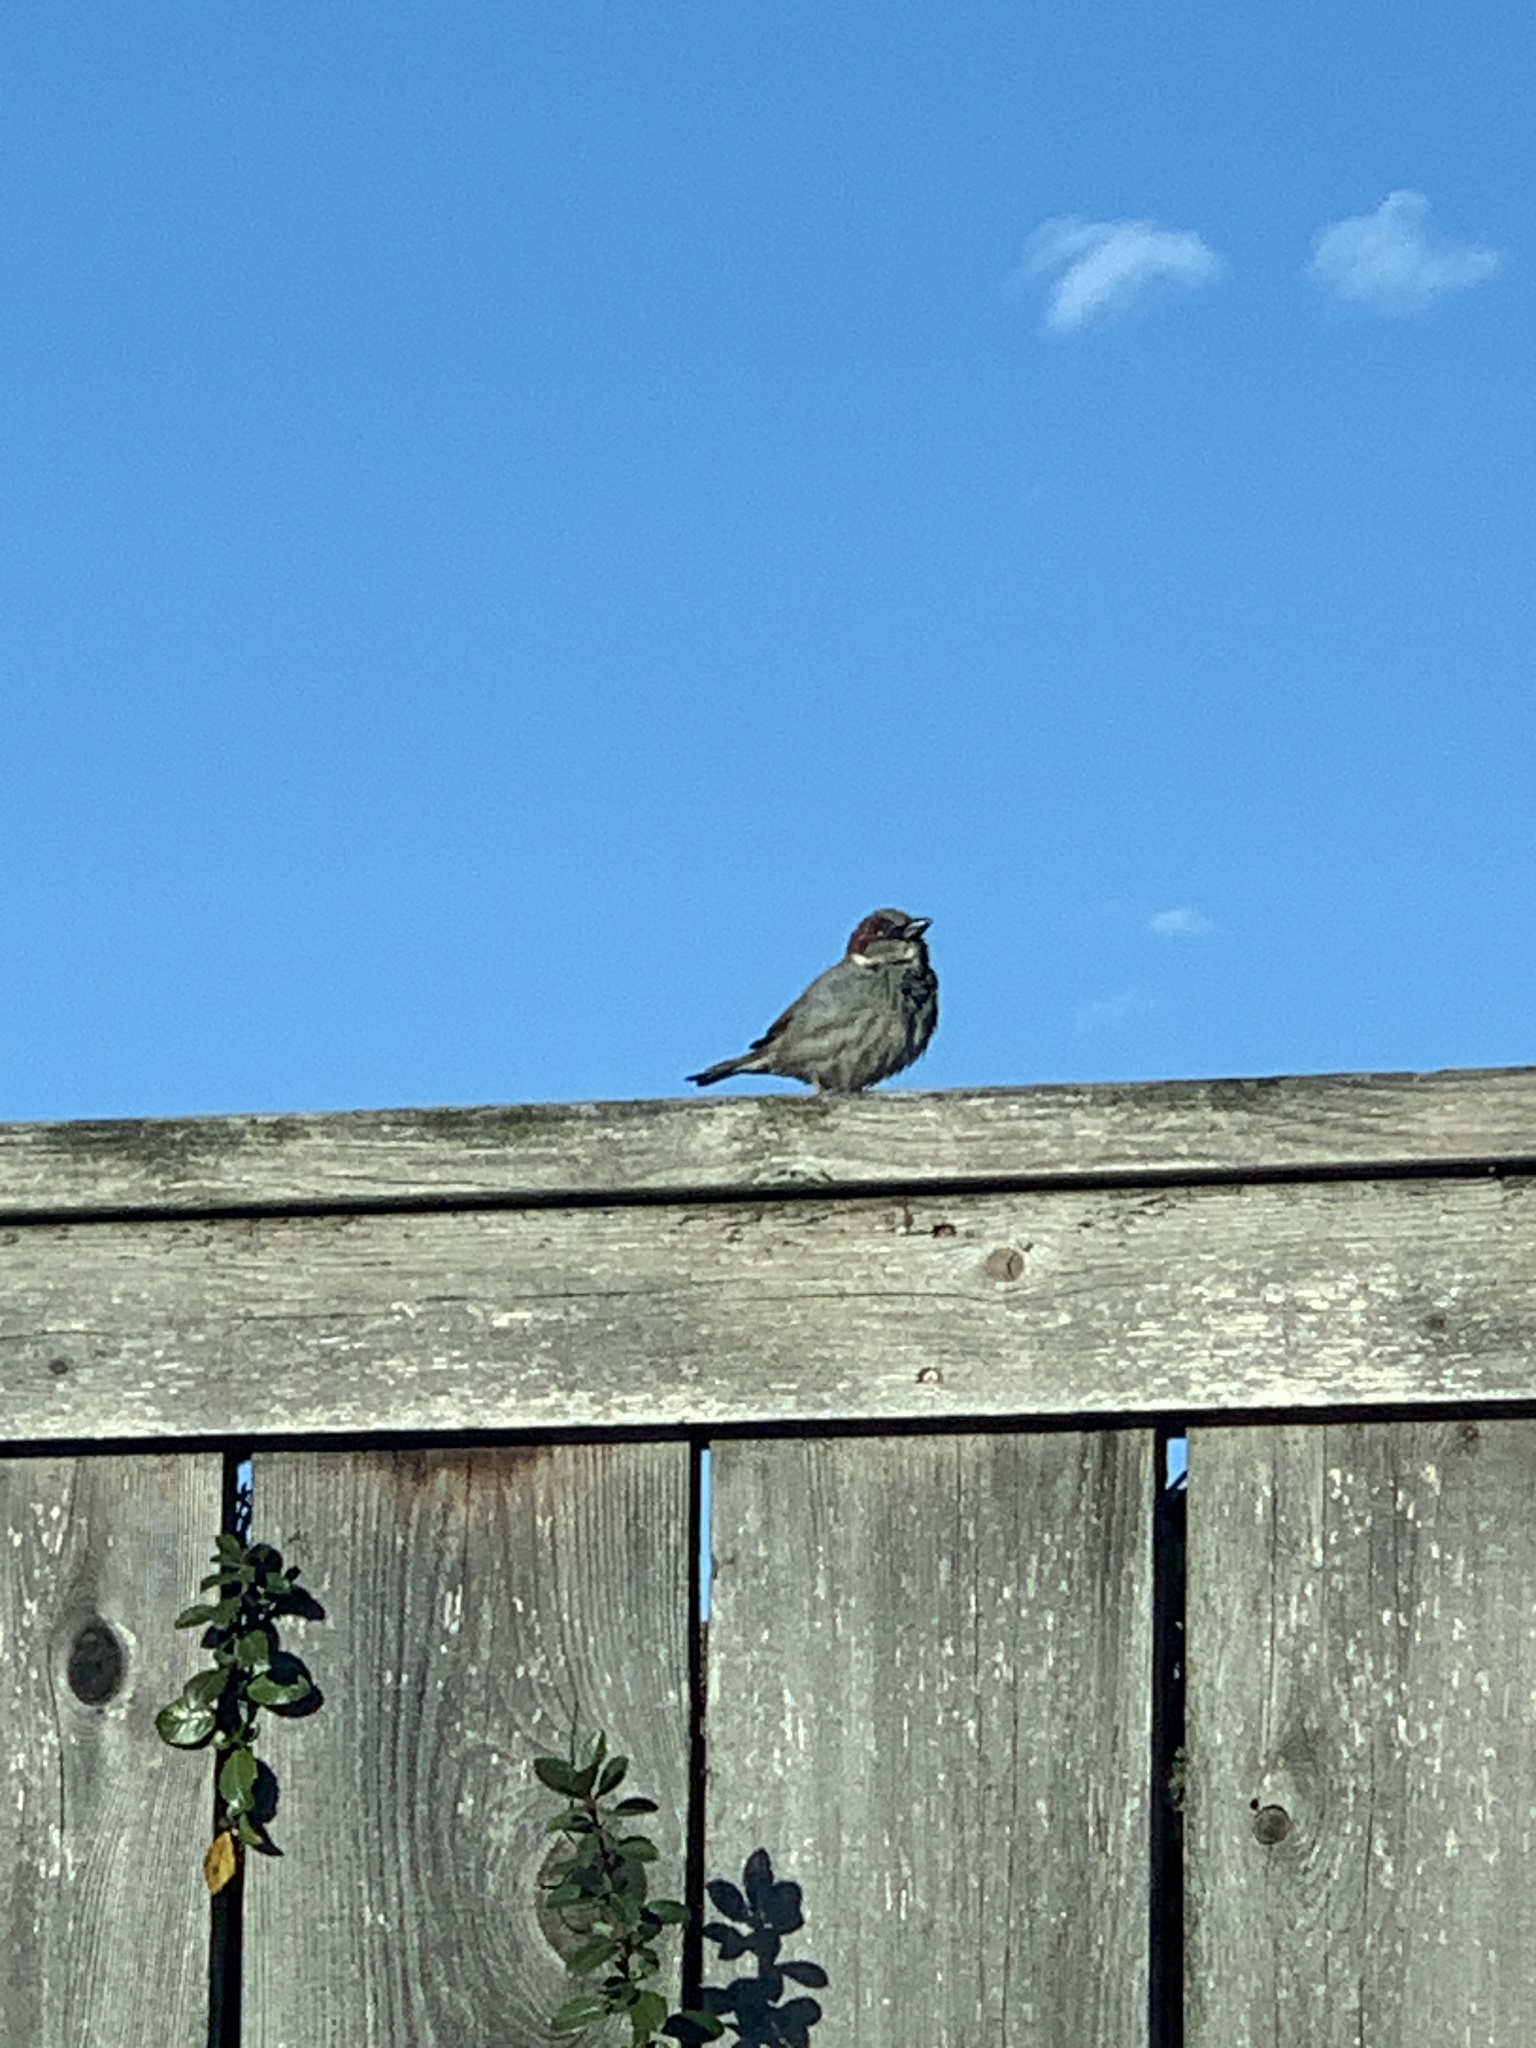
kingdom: Animalia
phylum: Chordata
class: Aves
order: Passeriformes
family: Passeridae
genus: Passer
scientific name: Passer domesticus
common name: House sparrow
